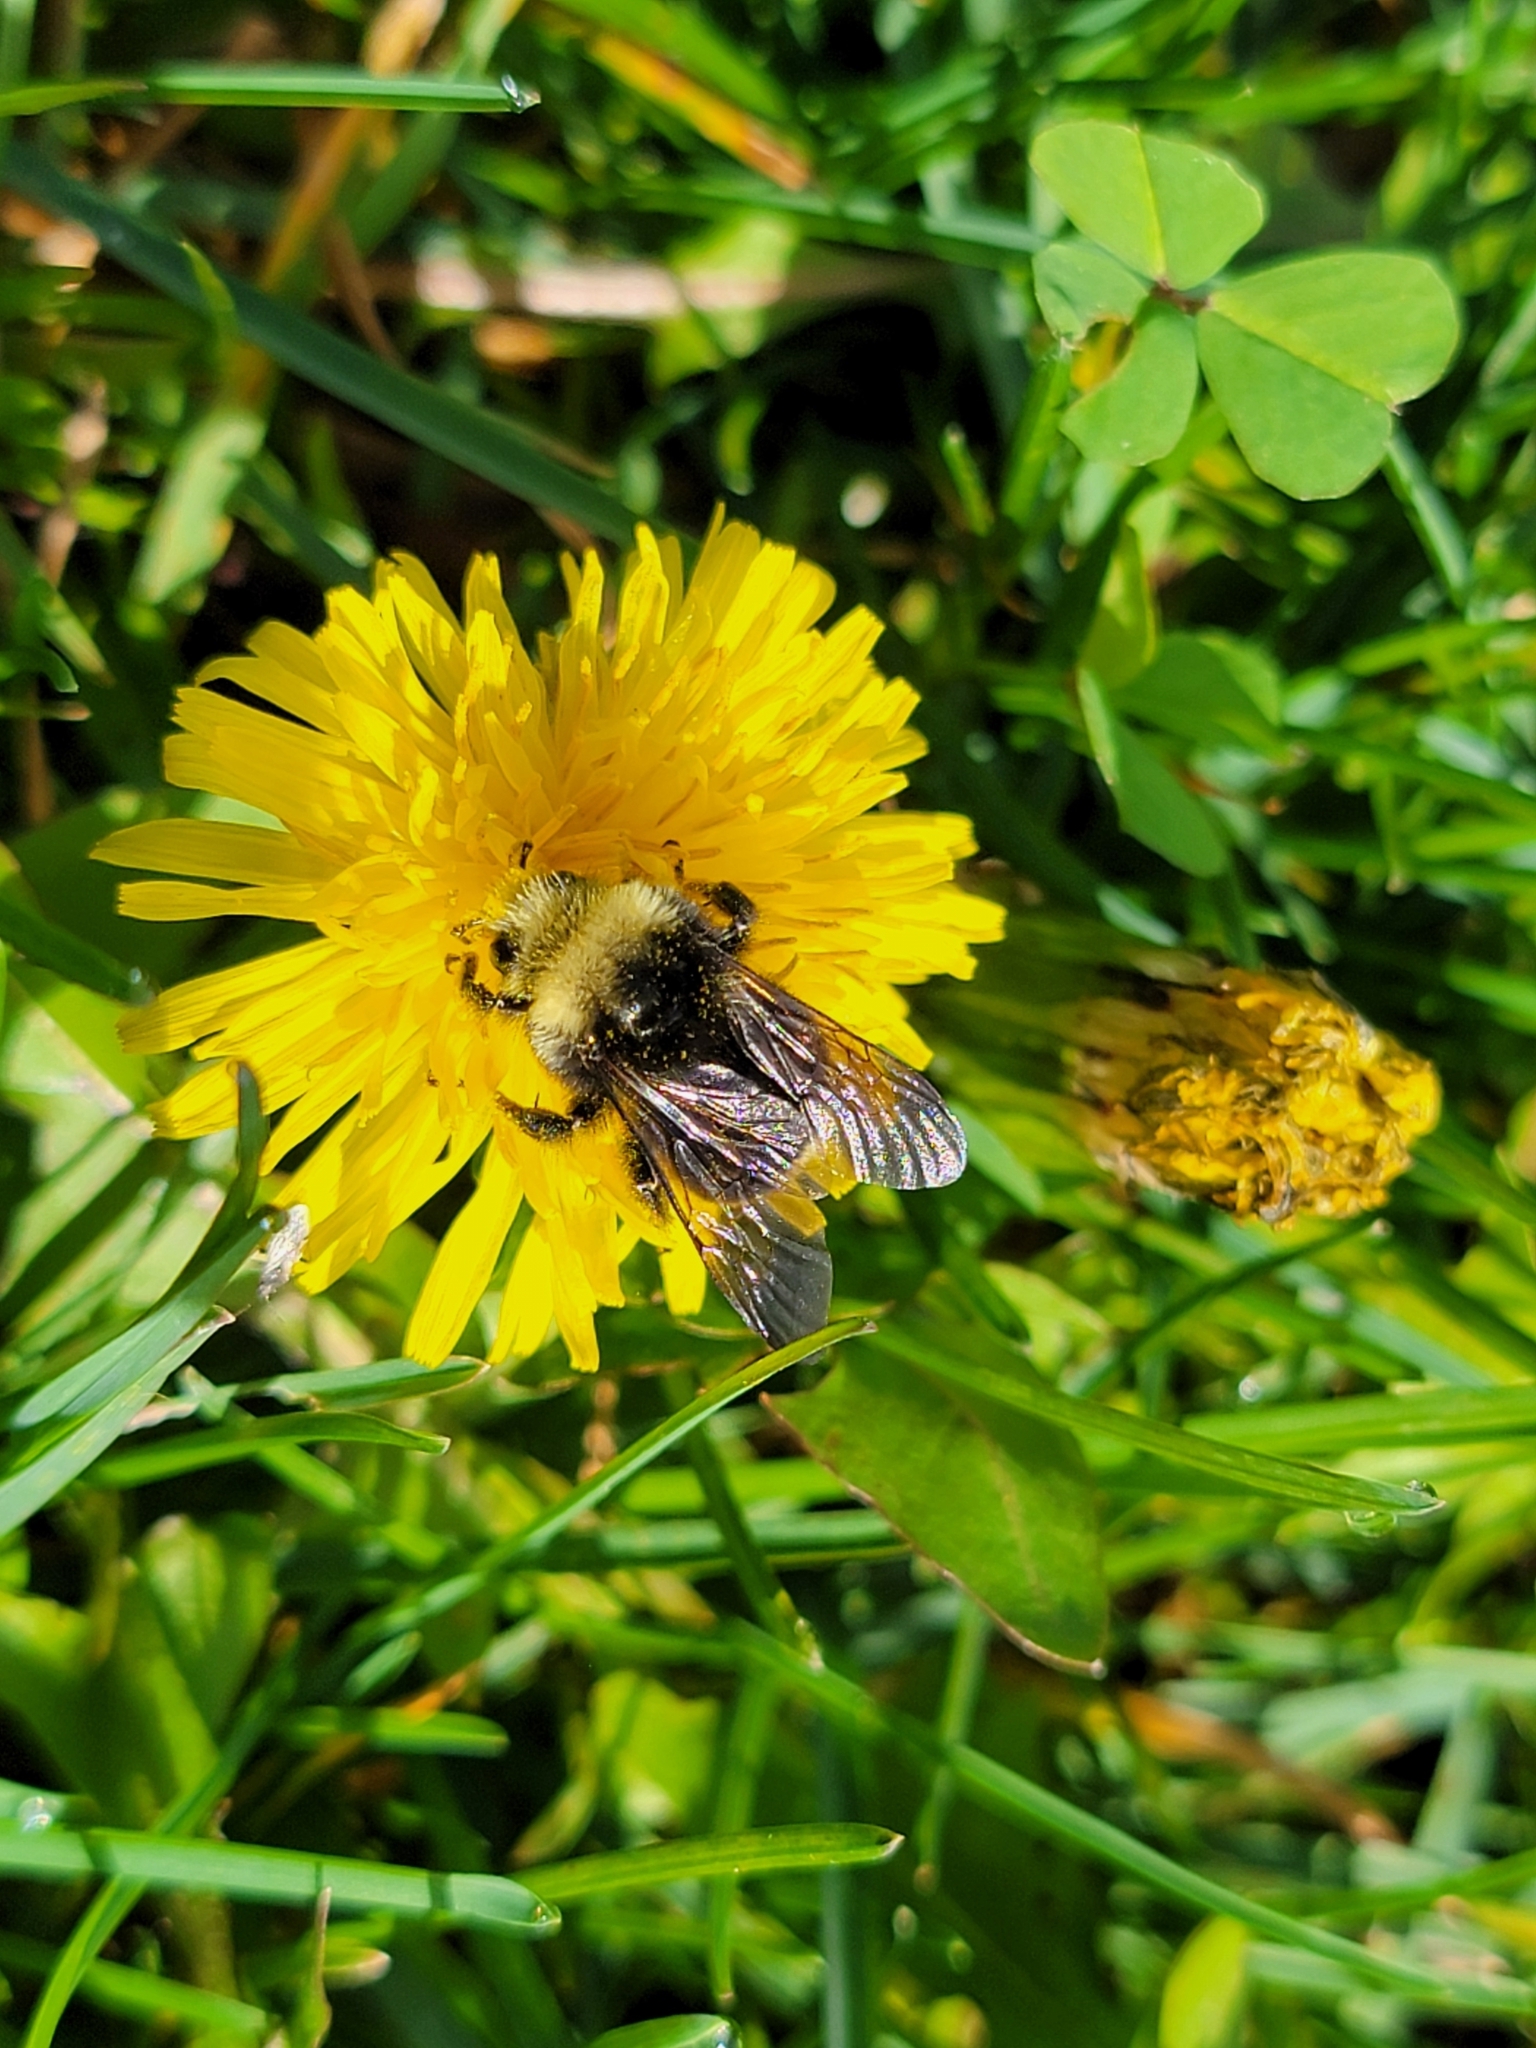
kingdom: Animalia
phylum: Arthropoda
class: Insecta
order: Hymenoptera
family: Apidae
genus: Pyrobombus
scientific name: Pyrobombus
